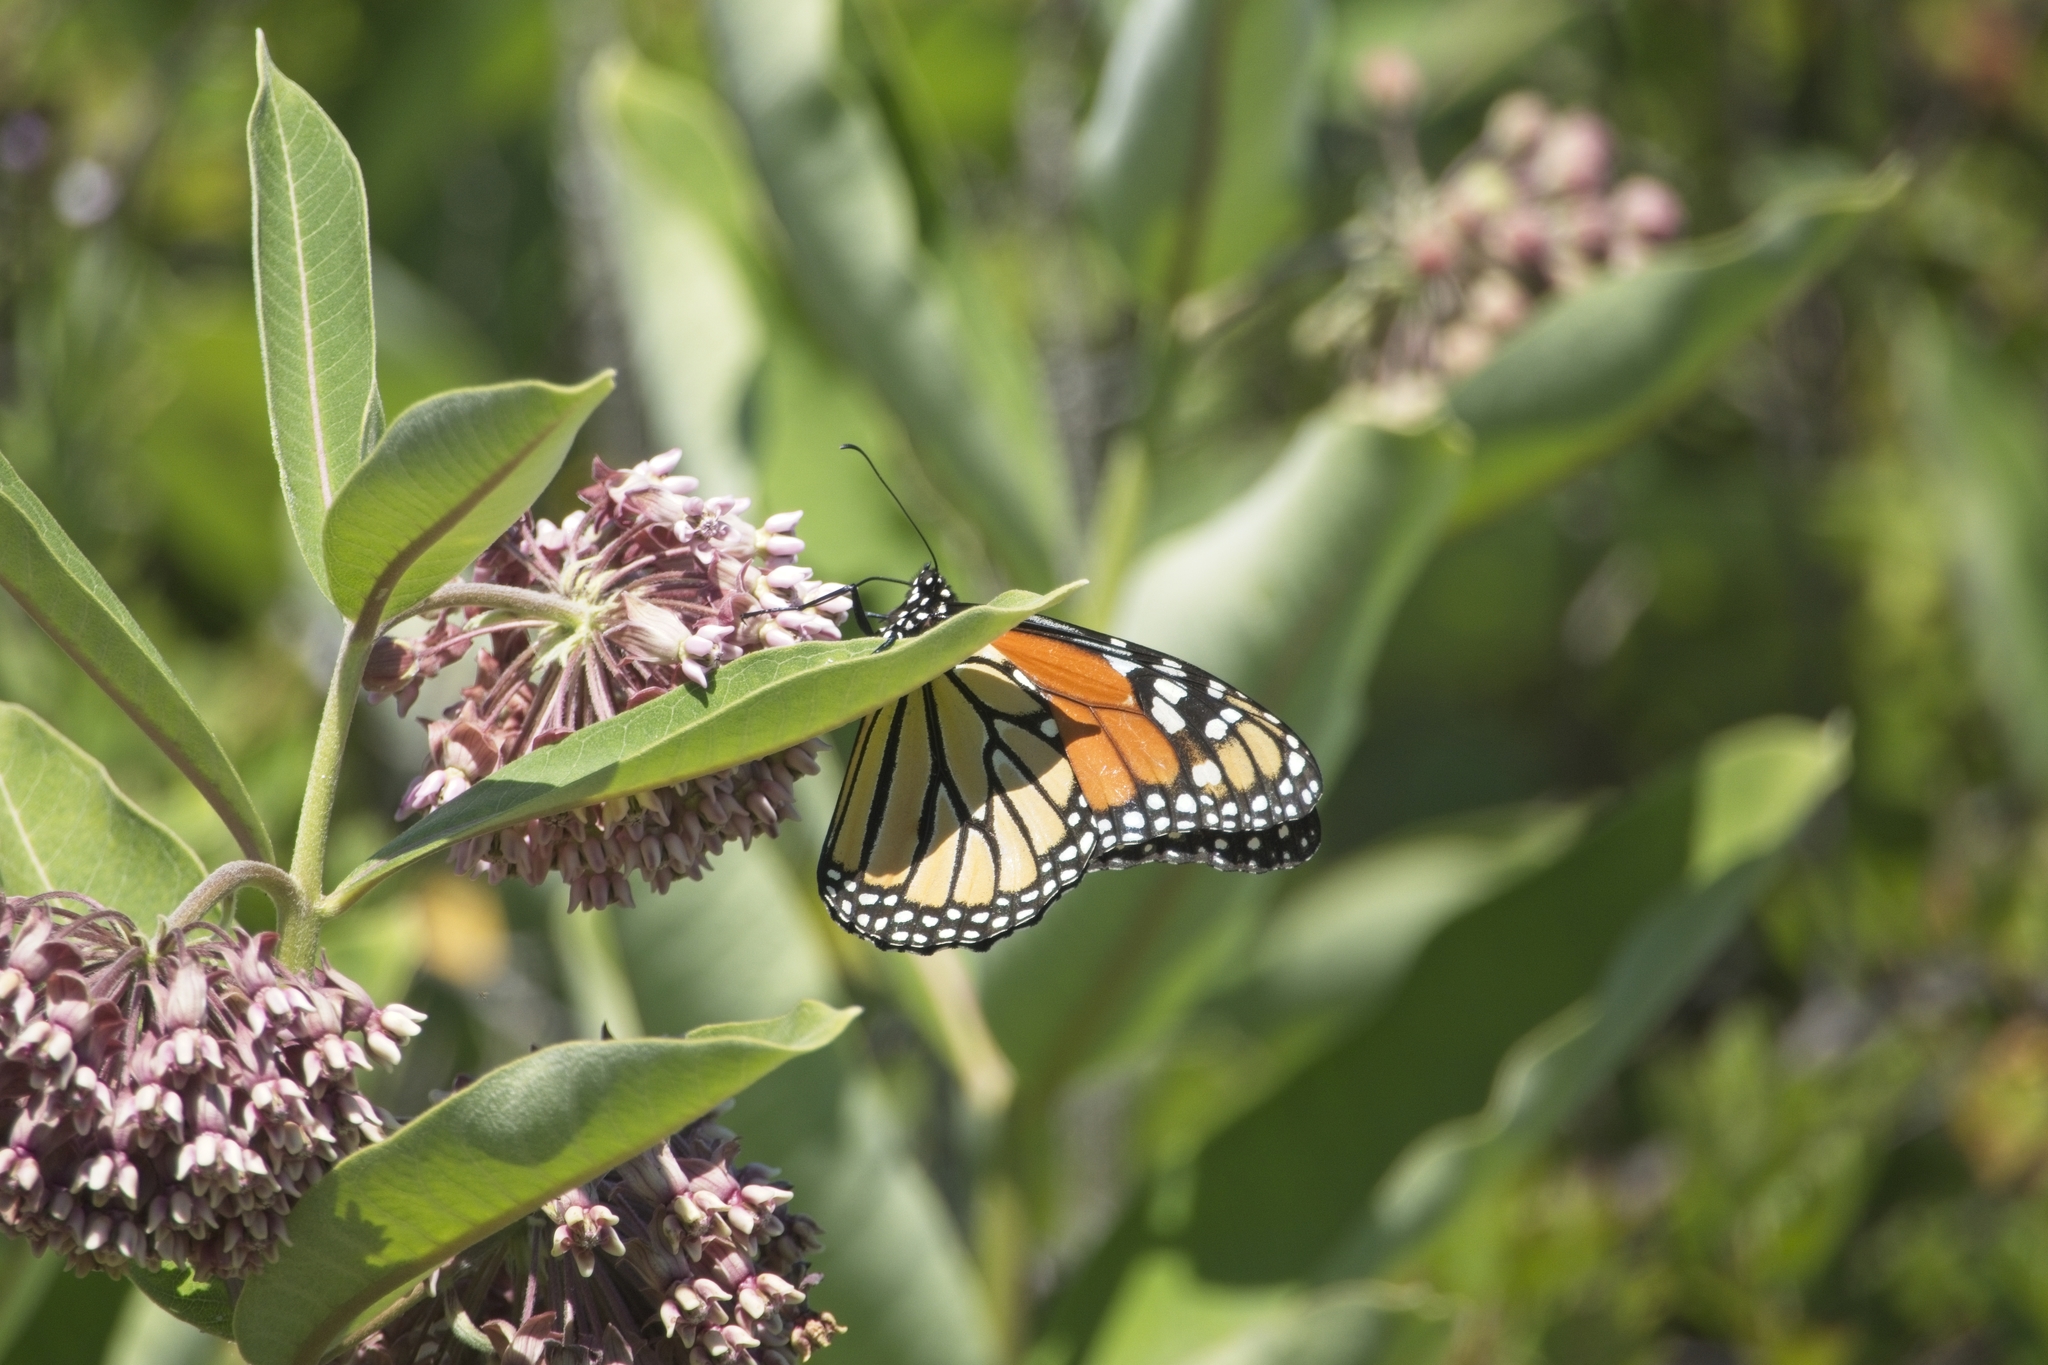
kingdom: Animalia
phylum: Arthropoda
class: Insecta
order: Lepidoptera
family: Nymphalidae
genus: Danaus
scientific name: Danaus plexippus
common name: Monarch
